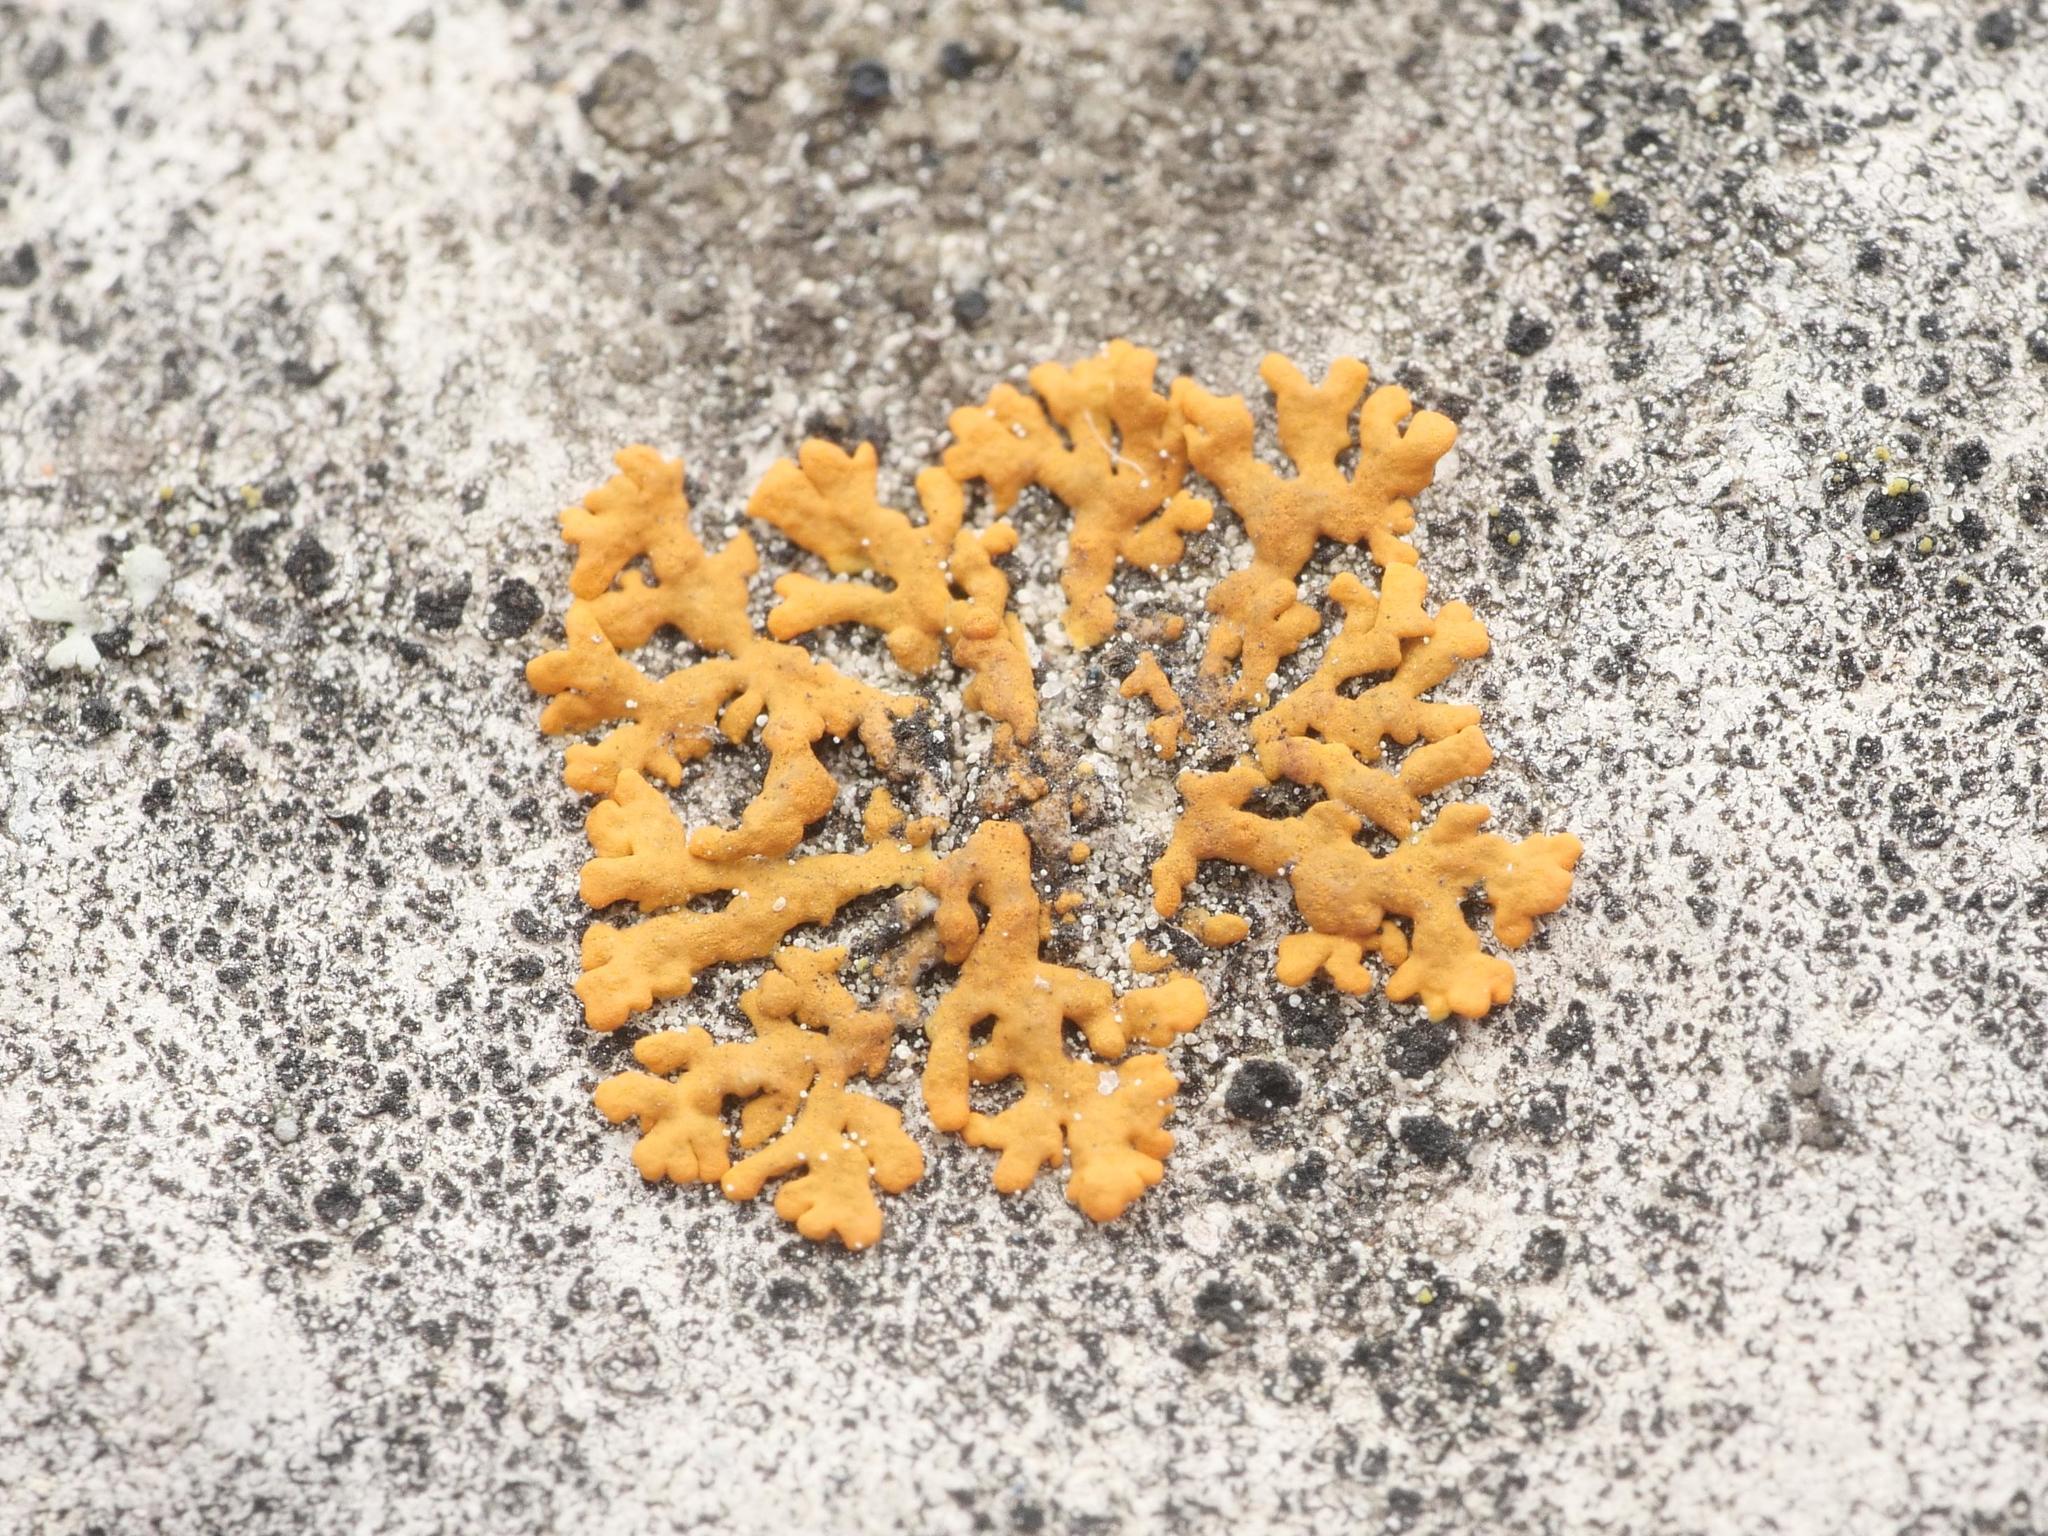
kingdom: Fungi
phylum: Ascomycota
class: Lecanoromycetes
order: Teloschistales
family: Teloschistaceae
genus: Xanthoria
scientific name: Xanthoria elegans
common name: Elegant sunburst lichen
